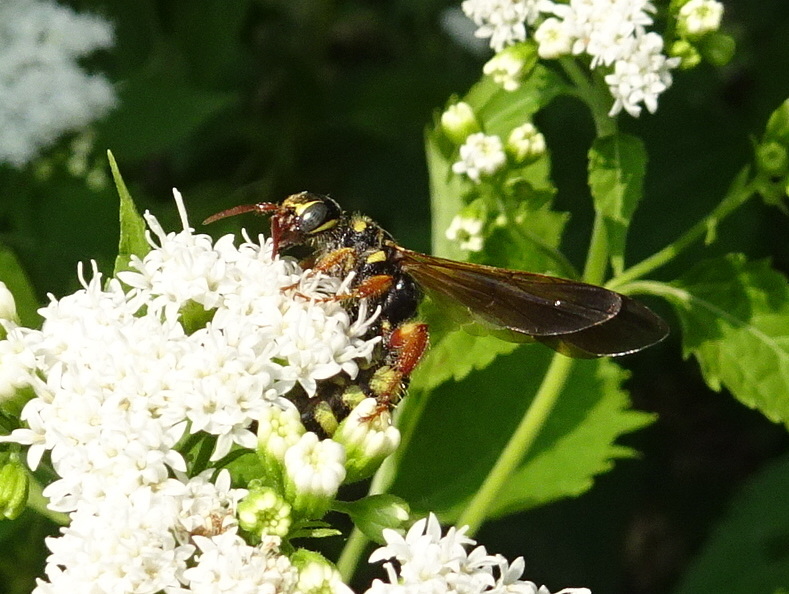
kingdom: Animalia
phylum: Arthropoda
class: Insecta
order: Hymenoptera
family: Tiphiidae
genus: Myzinum
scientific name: Myzinum quinquecinctum
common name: Five-banded thynnid wasp
